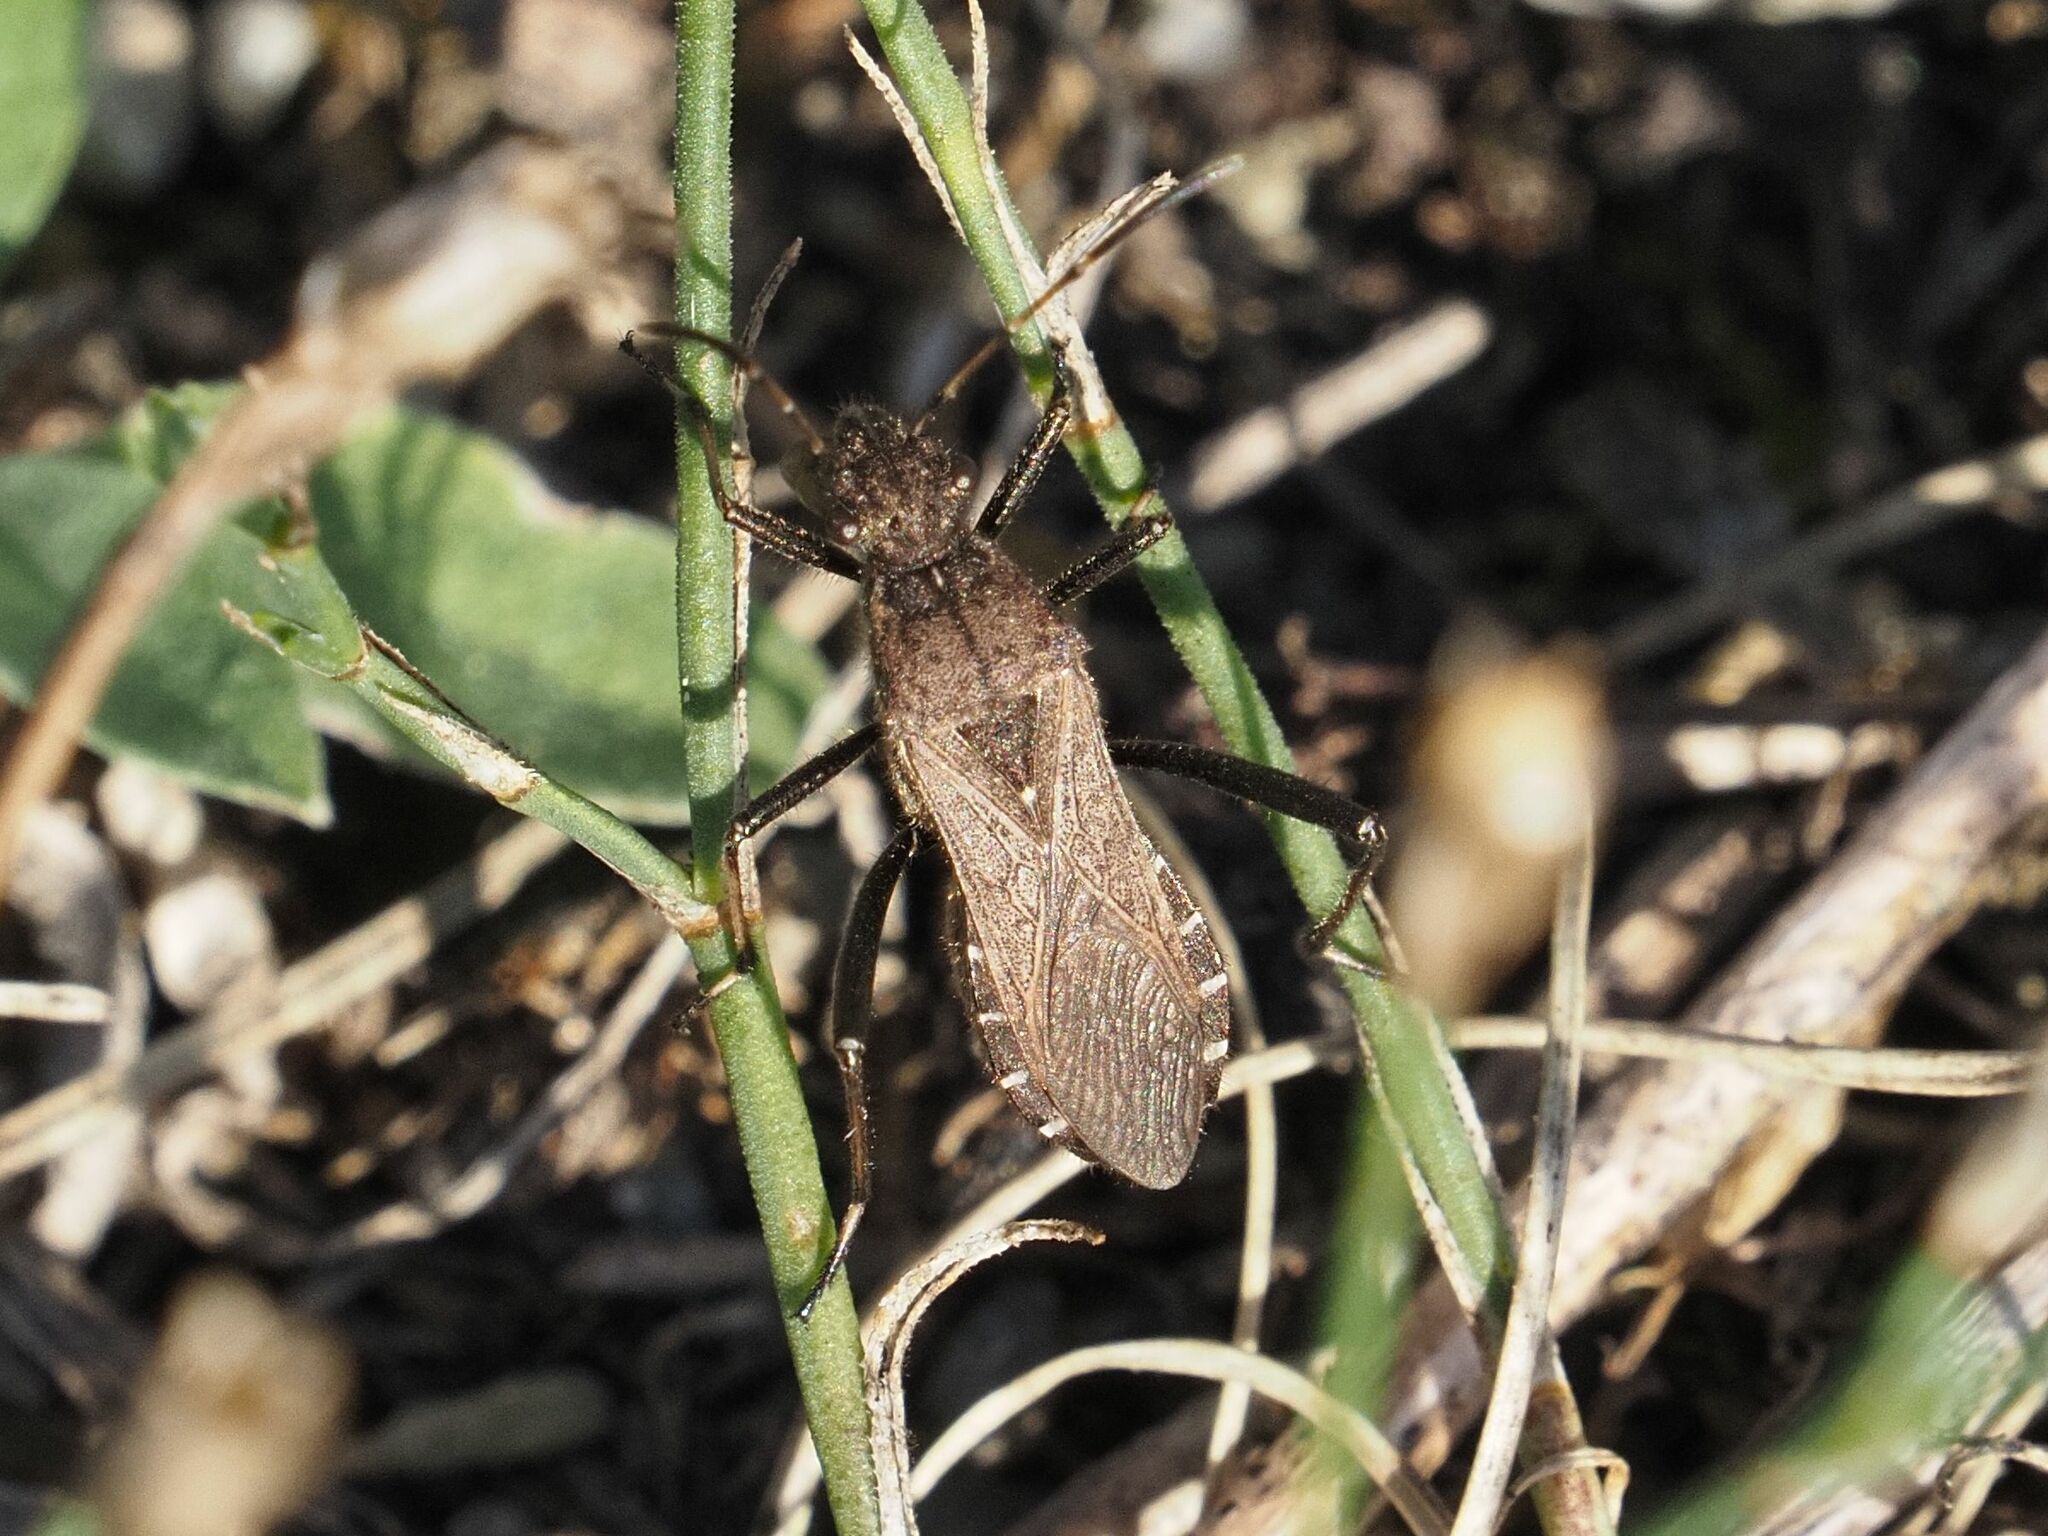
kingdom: Animalia
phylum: Arthropoda
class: Insecta
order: Hemiptera
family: Alydidae
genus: Alydus
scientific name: Alydus calcaratus
